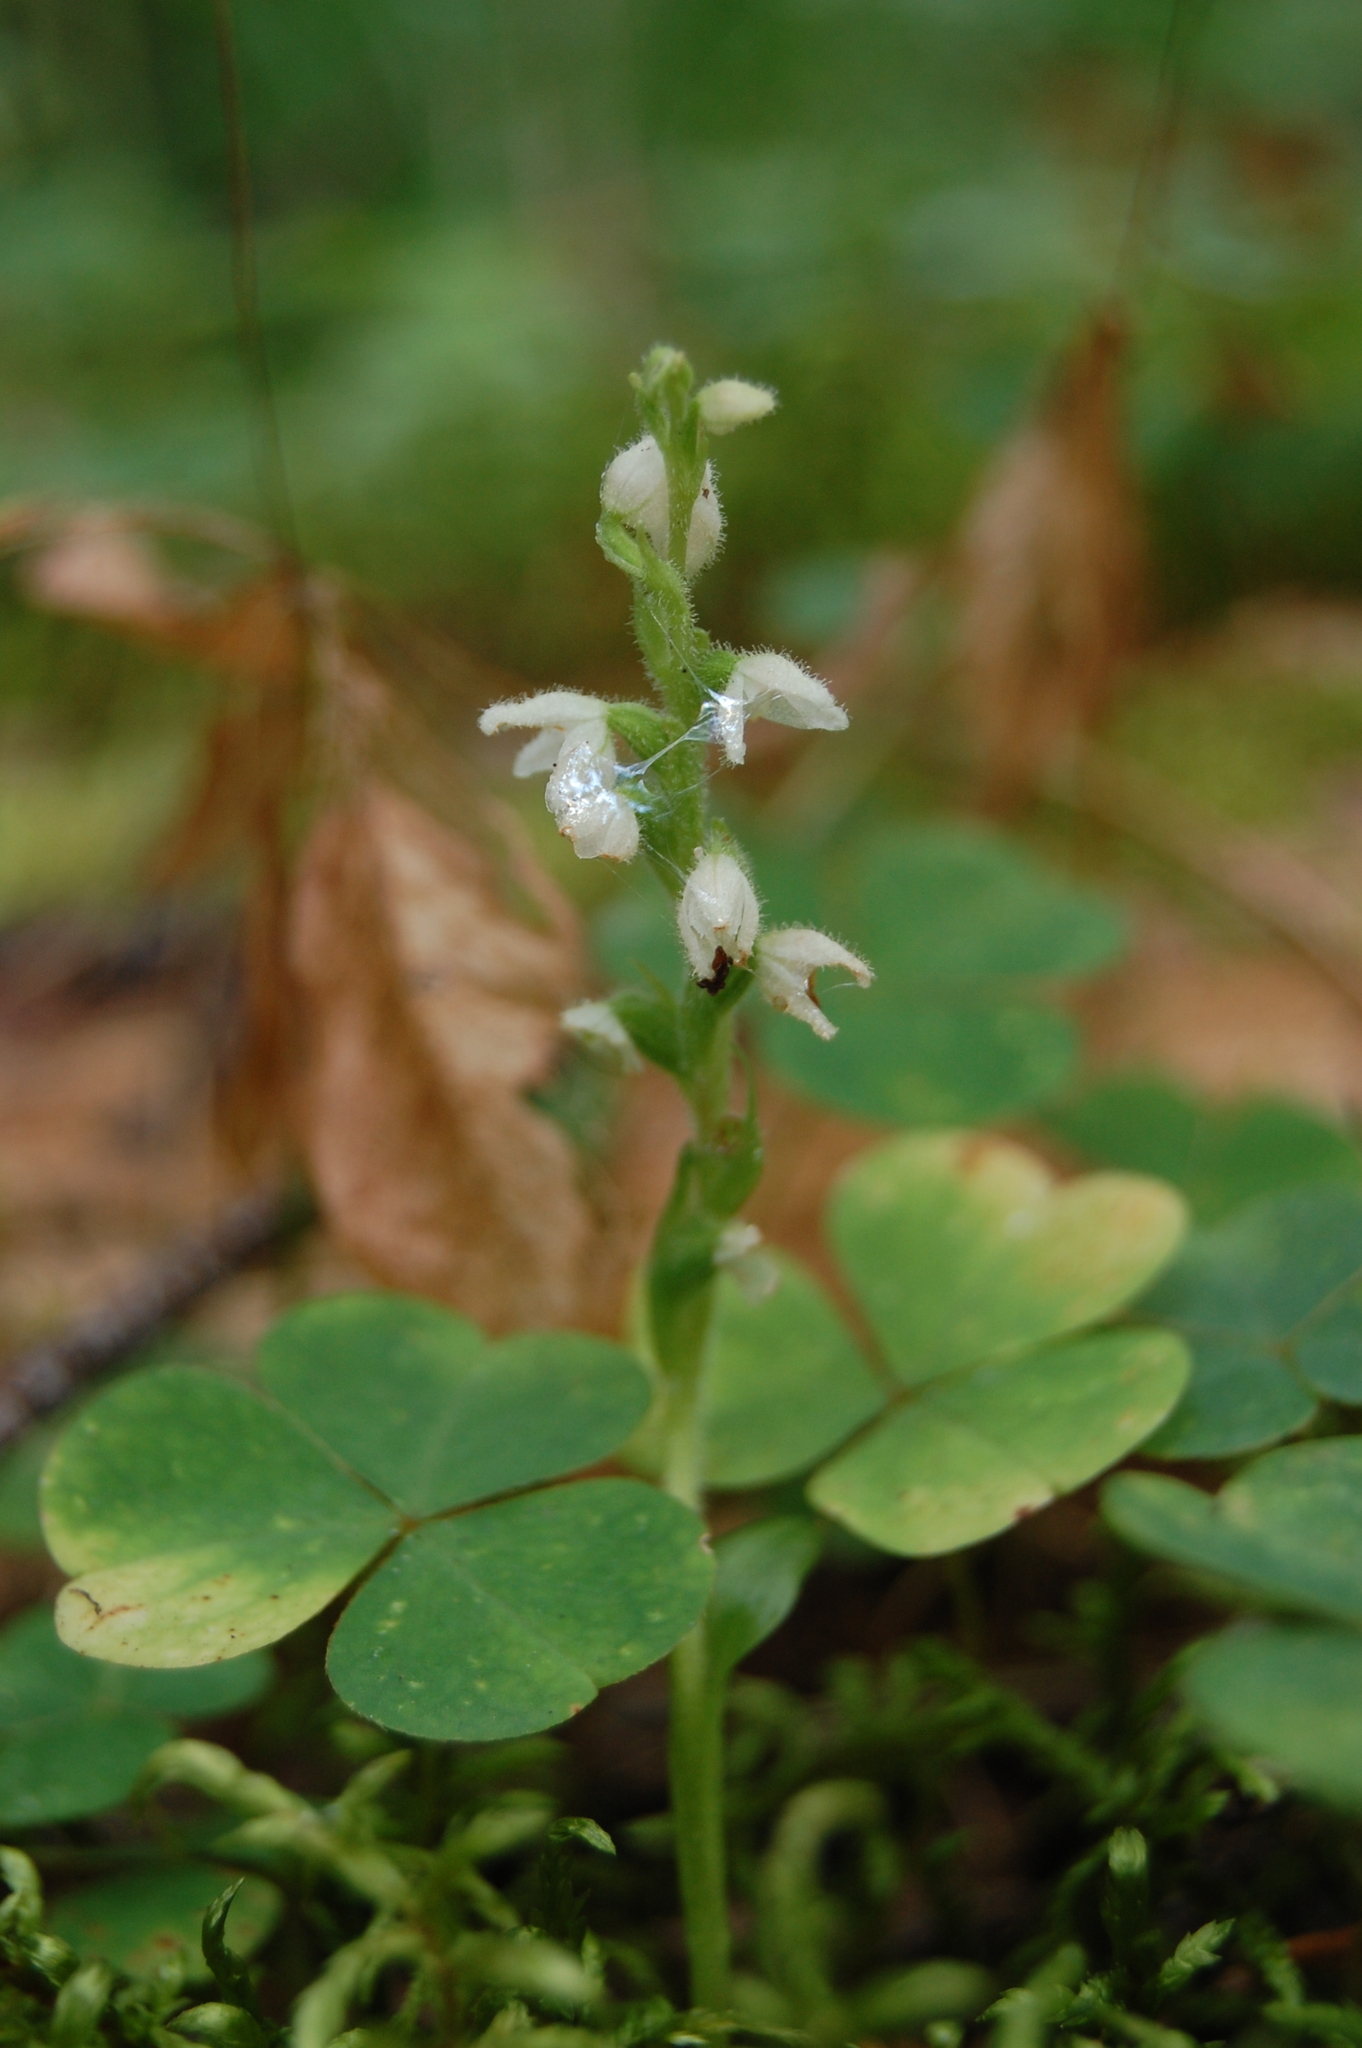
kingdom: Plantae
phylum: Tracheophyta
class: Liliopsida
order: Asparagales
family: Orchidaceae
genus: Goodyera
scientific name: Goodyera repens
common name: Creeping lady's-tresses
